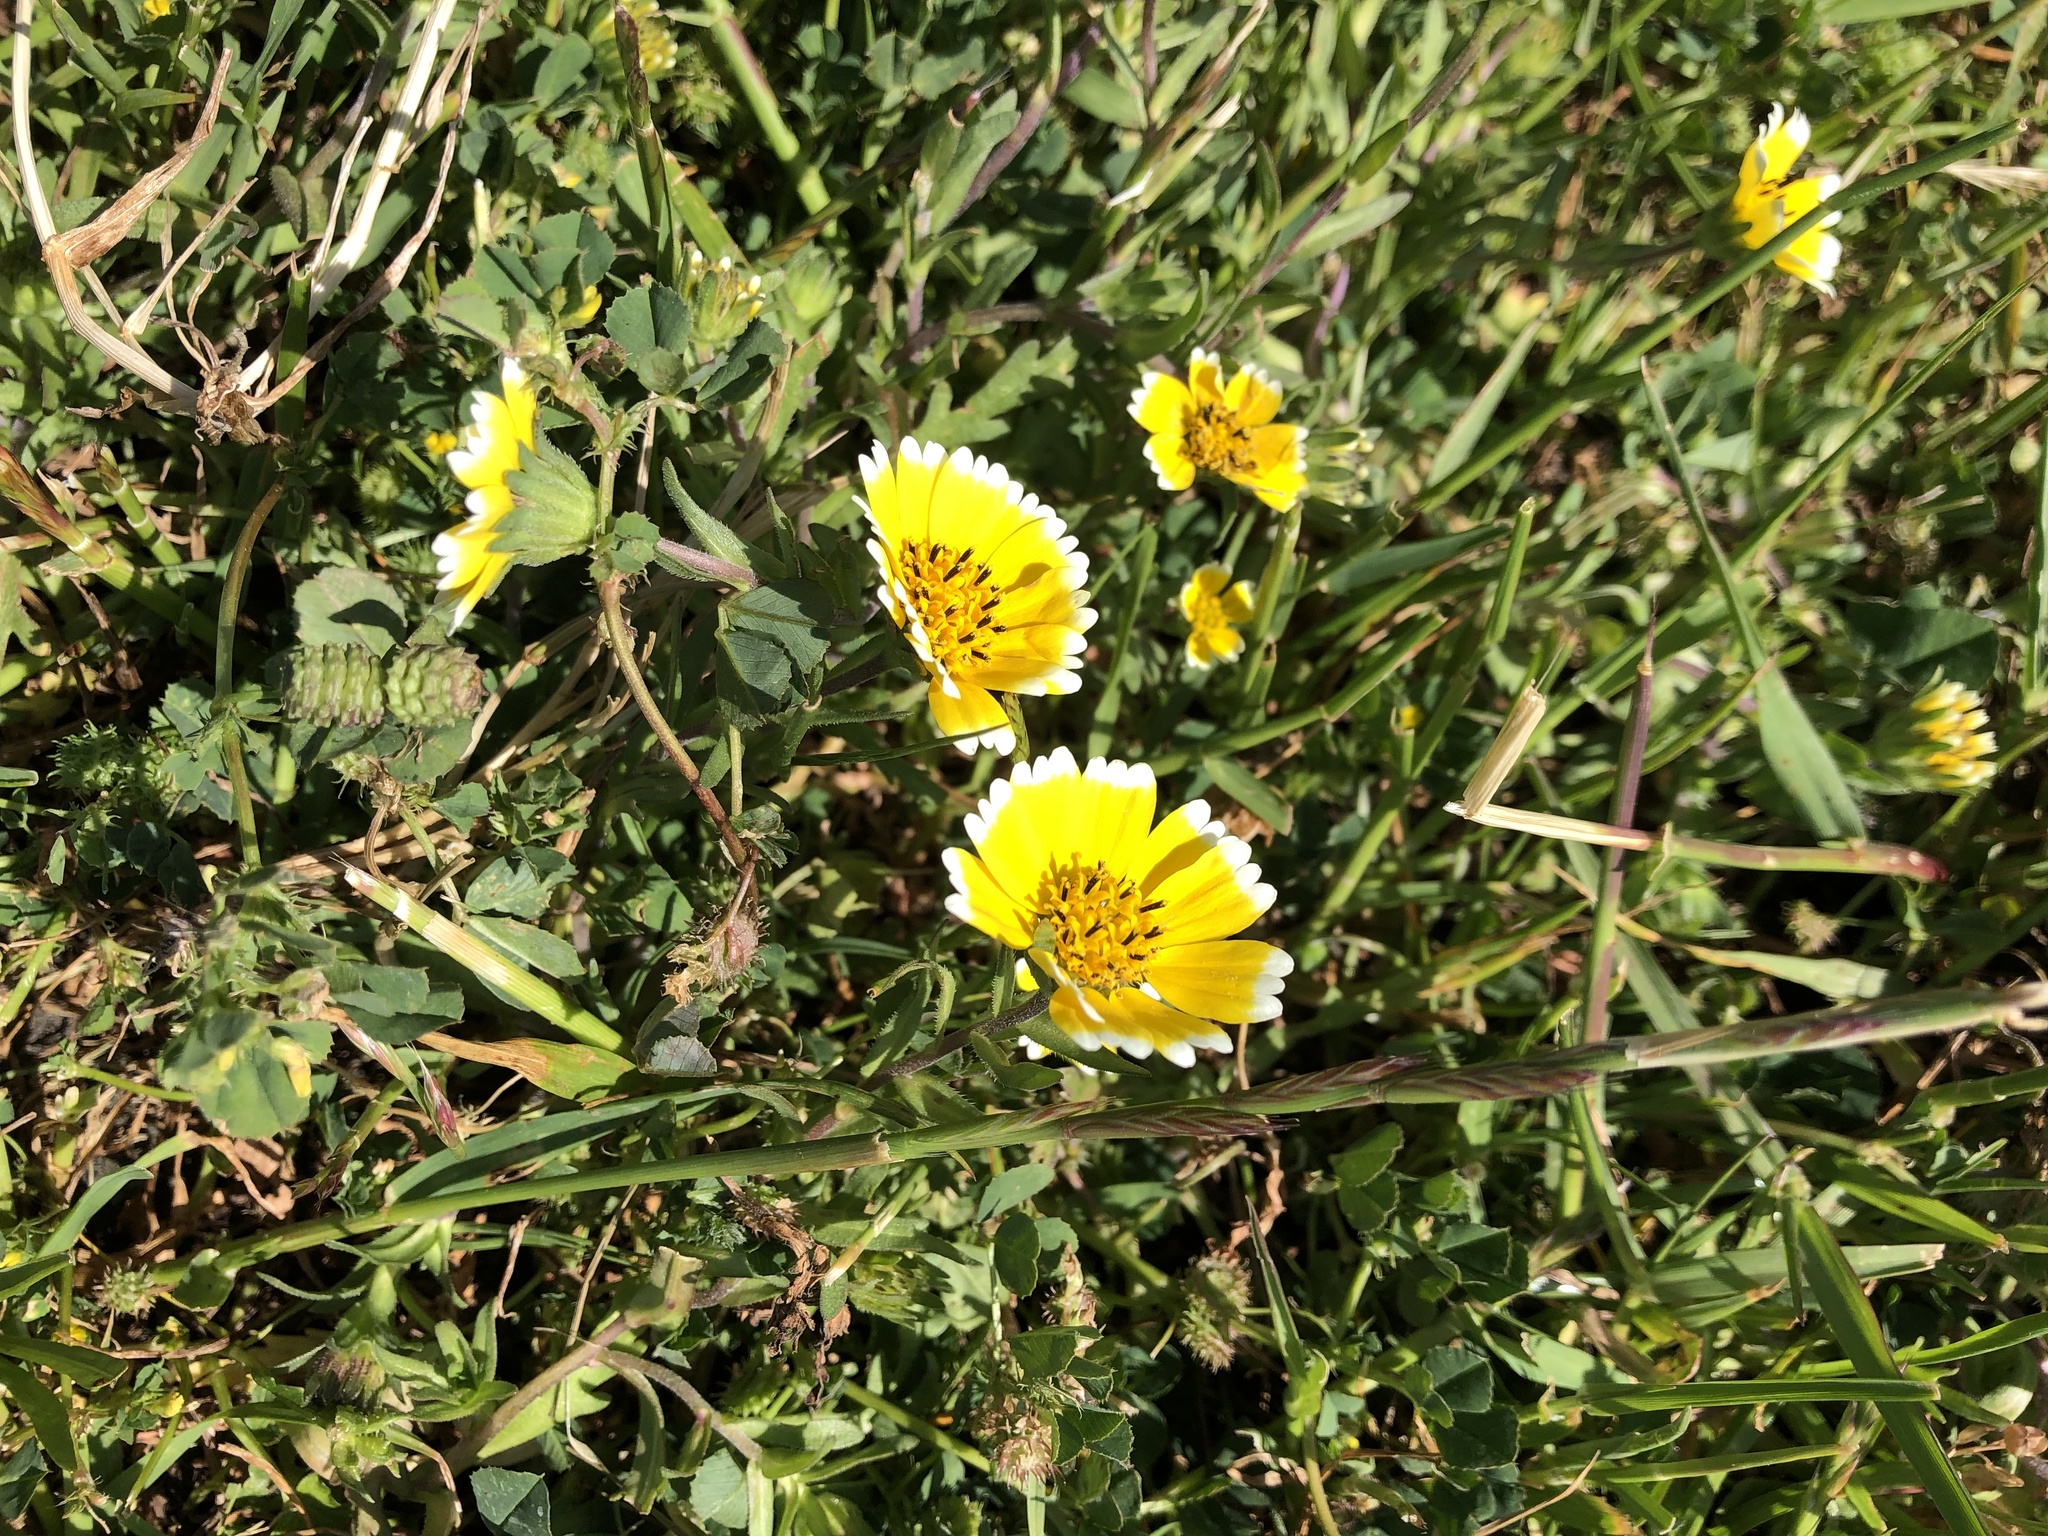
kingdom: Plantae
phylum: Tracheophyta
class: Magnoliopsida
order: Asterales
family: Asteraceae
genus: Layia
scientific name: Layia platyglossa
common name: Tidy-tips
